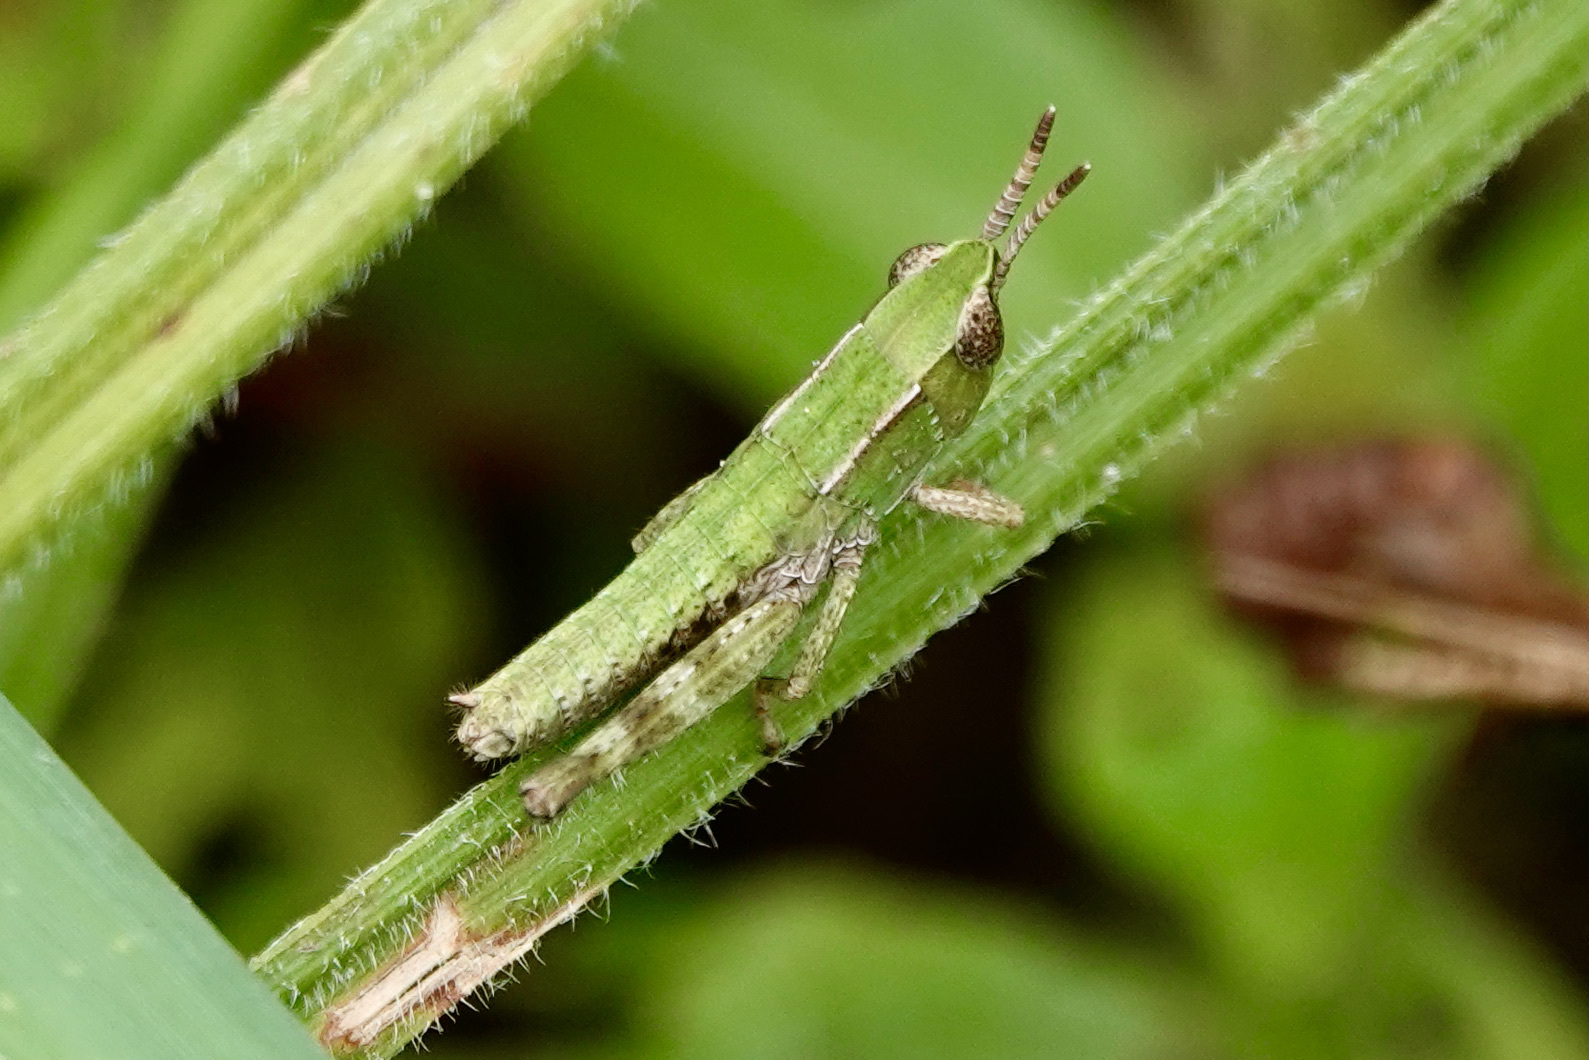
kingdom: Animalia
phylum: Arthropoda
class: Insecta
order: Orthoptera
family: Acrididae
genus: Dichromorpha
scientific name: Dichromorpha viridis
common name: Short-winged green grasshopper
